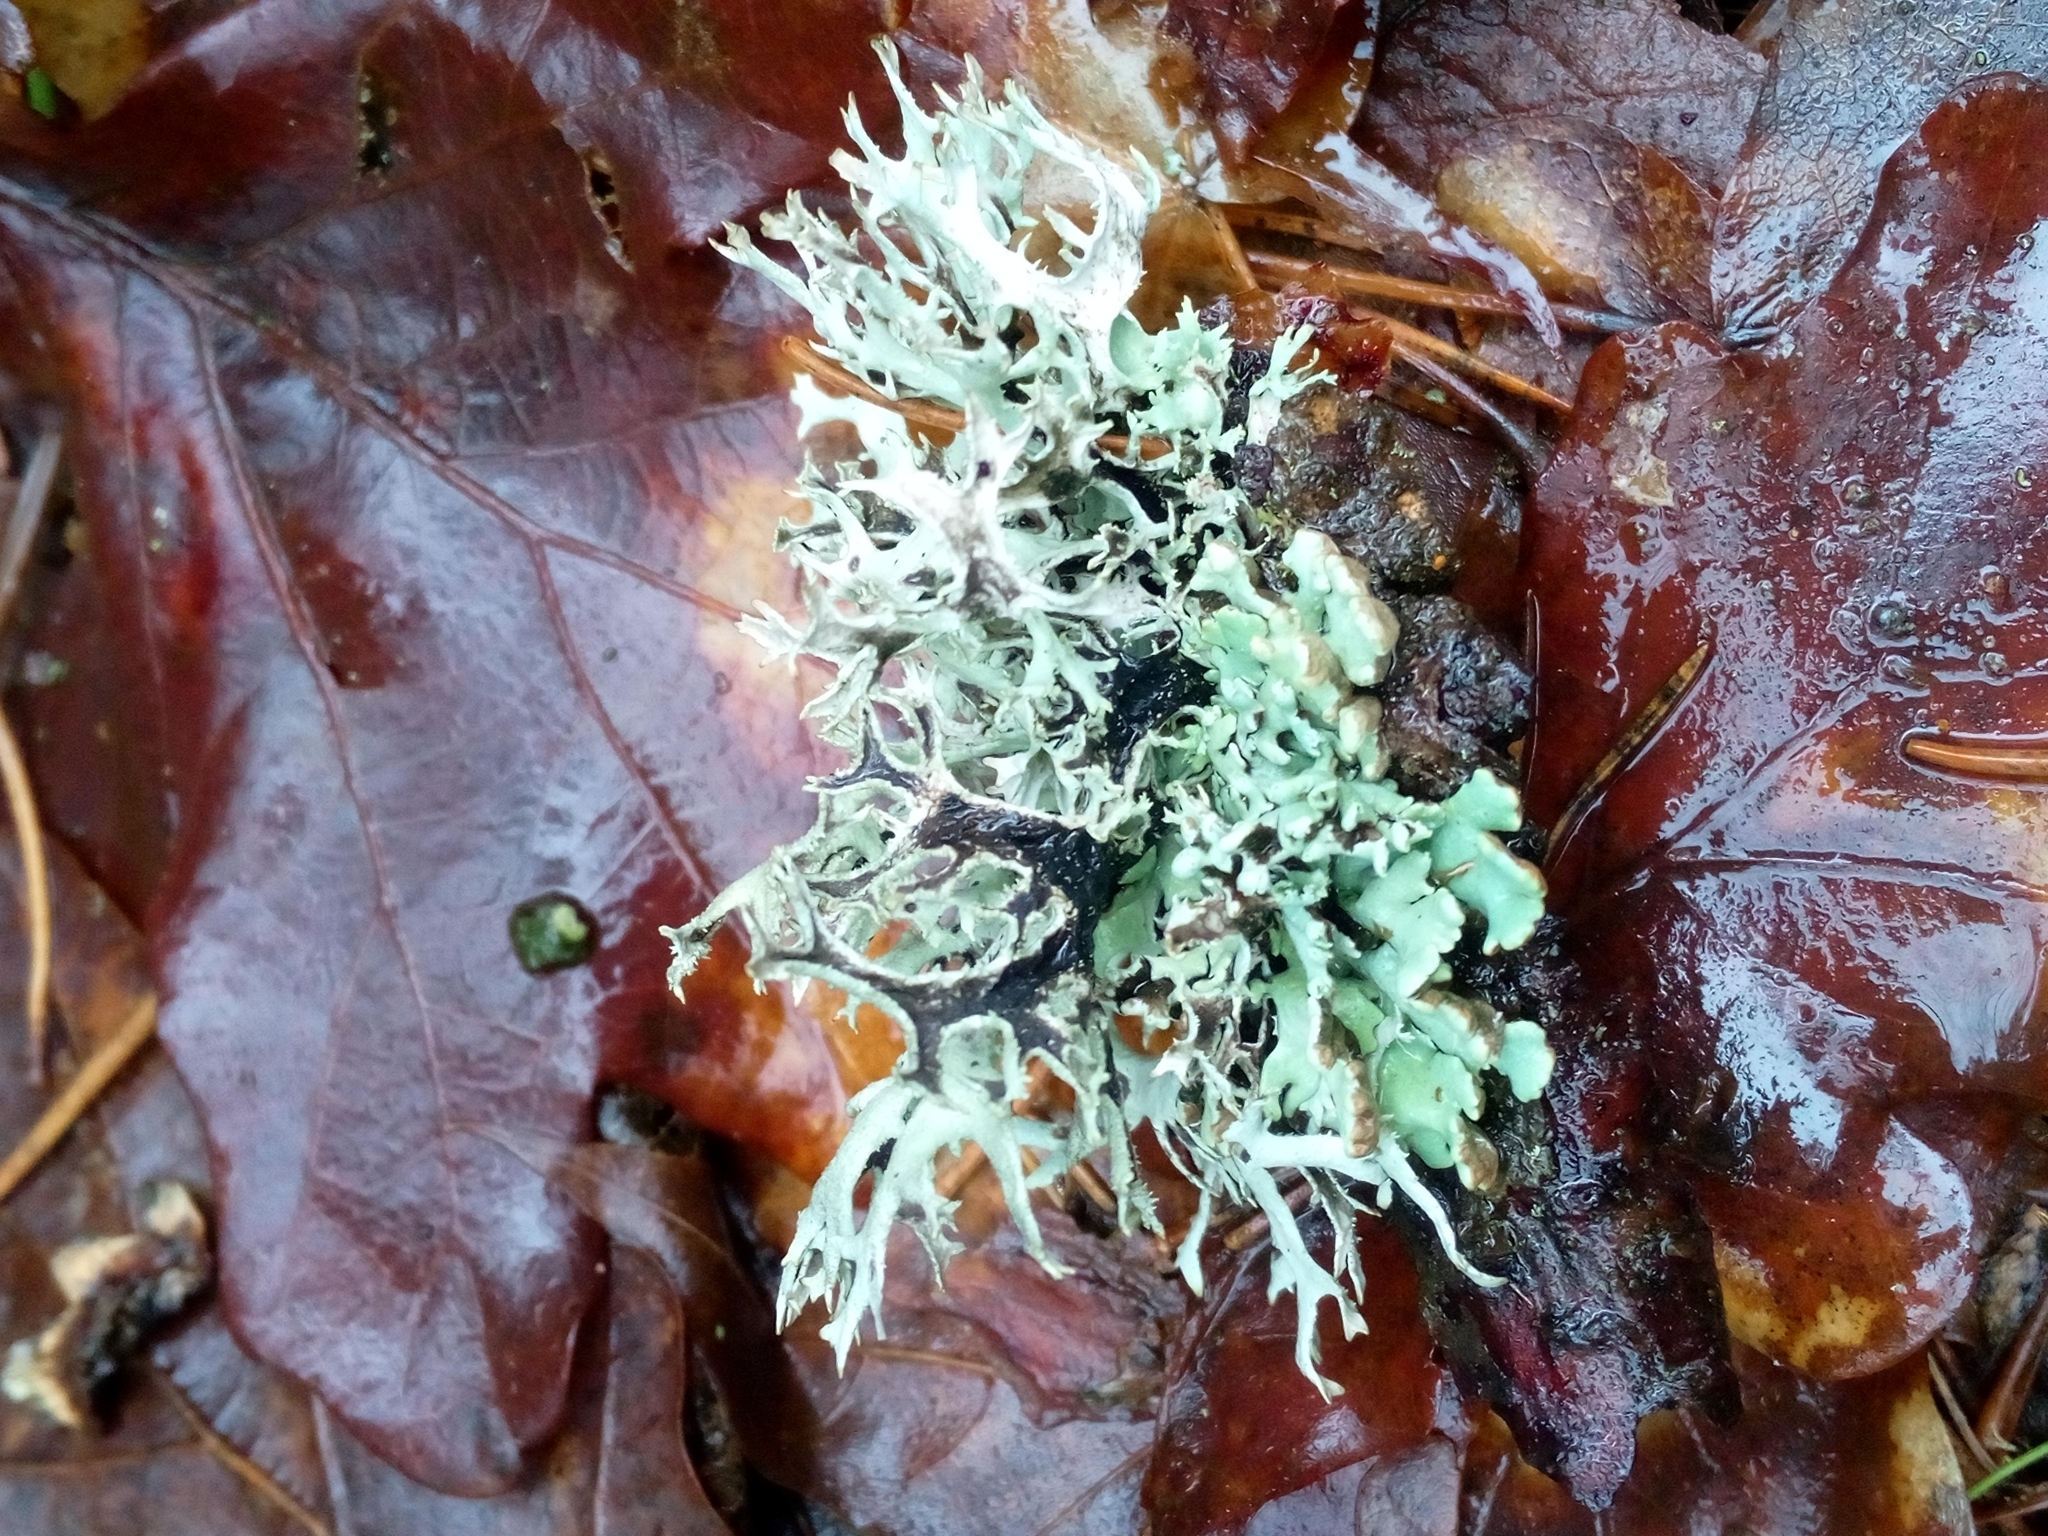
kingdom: Fungi
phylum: Ascomycota
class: Lecanoromycetes
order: Lecanorales
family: Parmeliaceae
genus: Pseudevernia
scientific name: Pseudevernia furfuracea
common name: Tree moss
